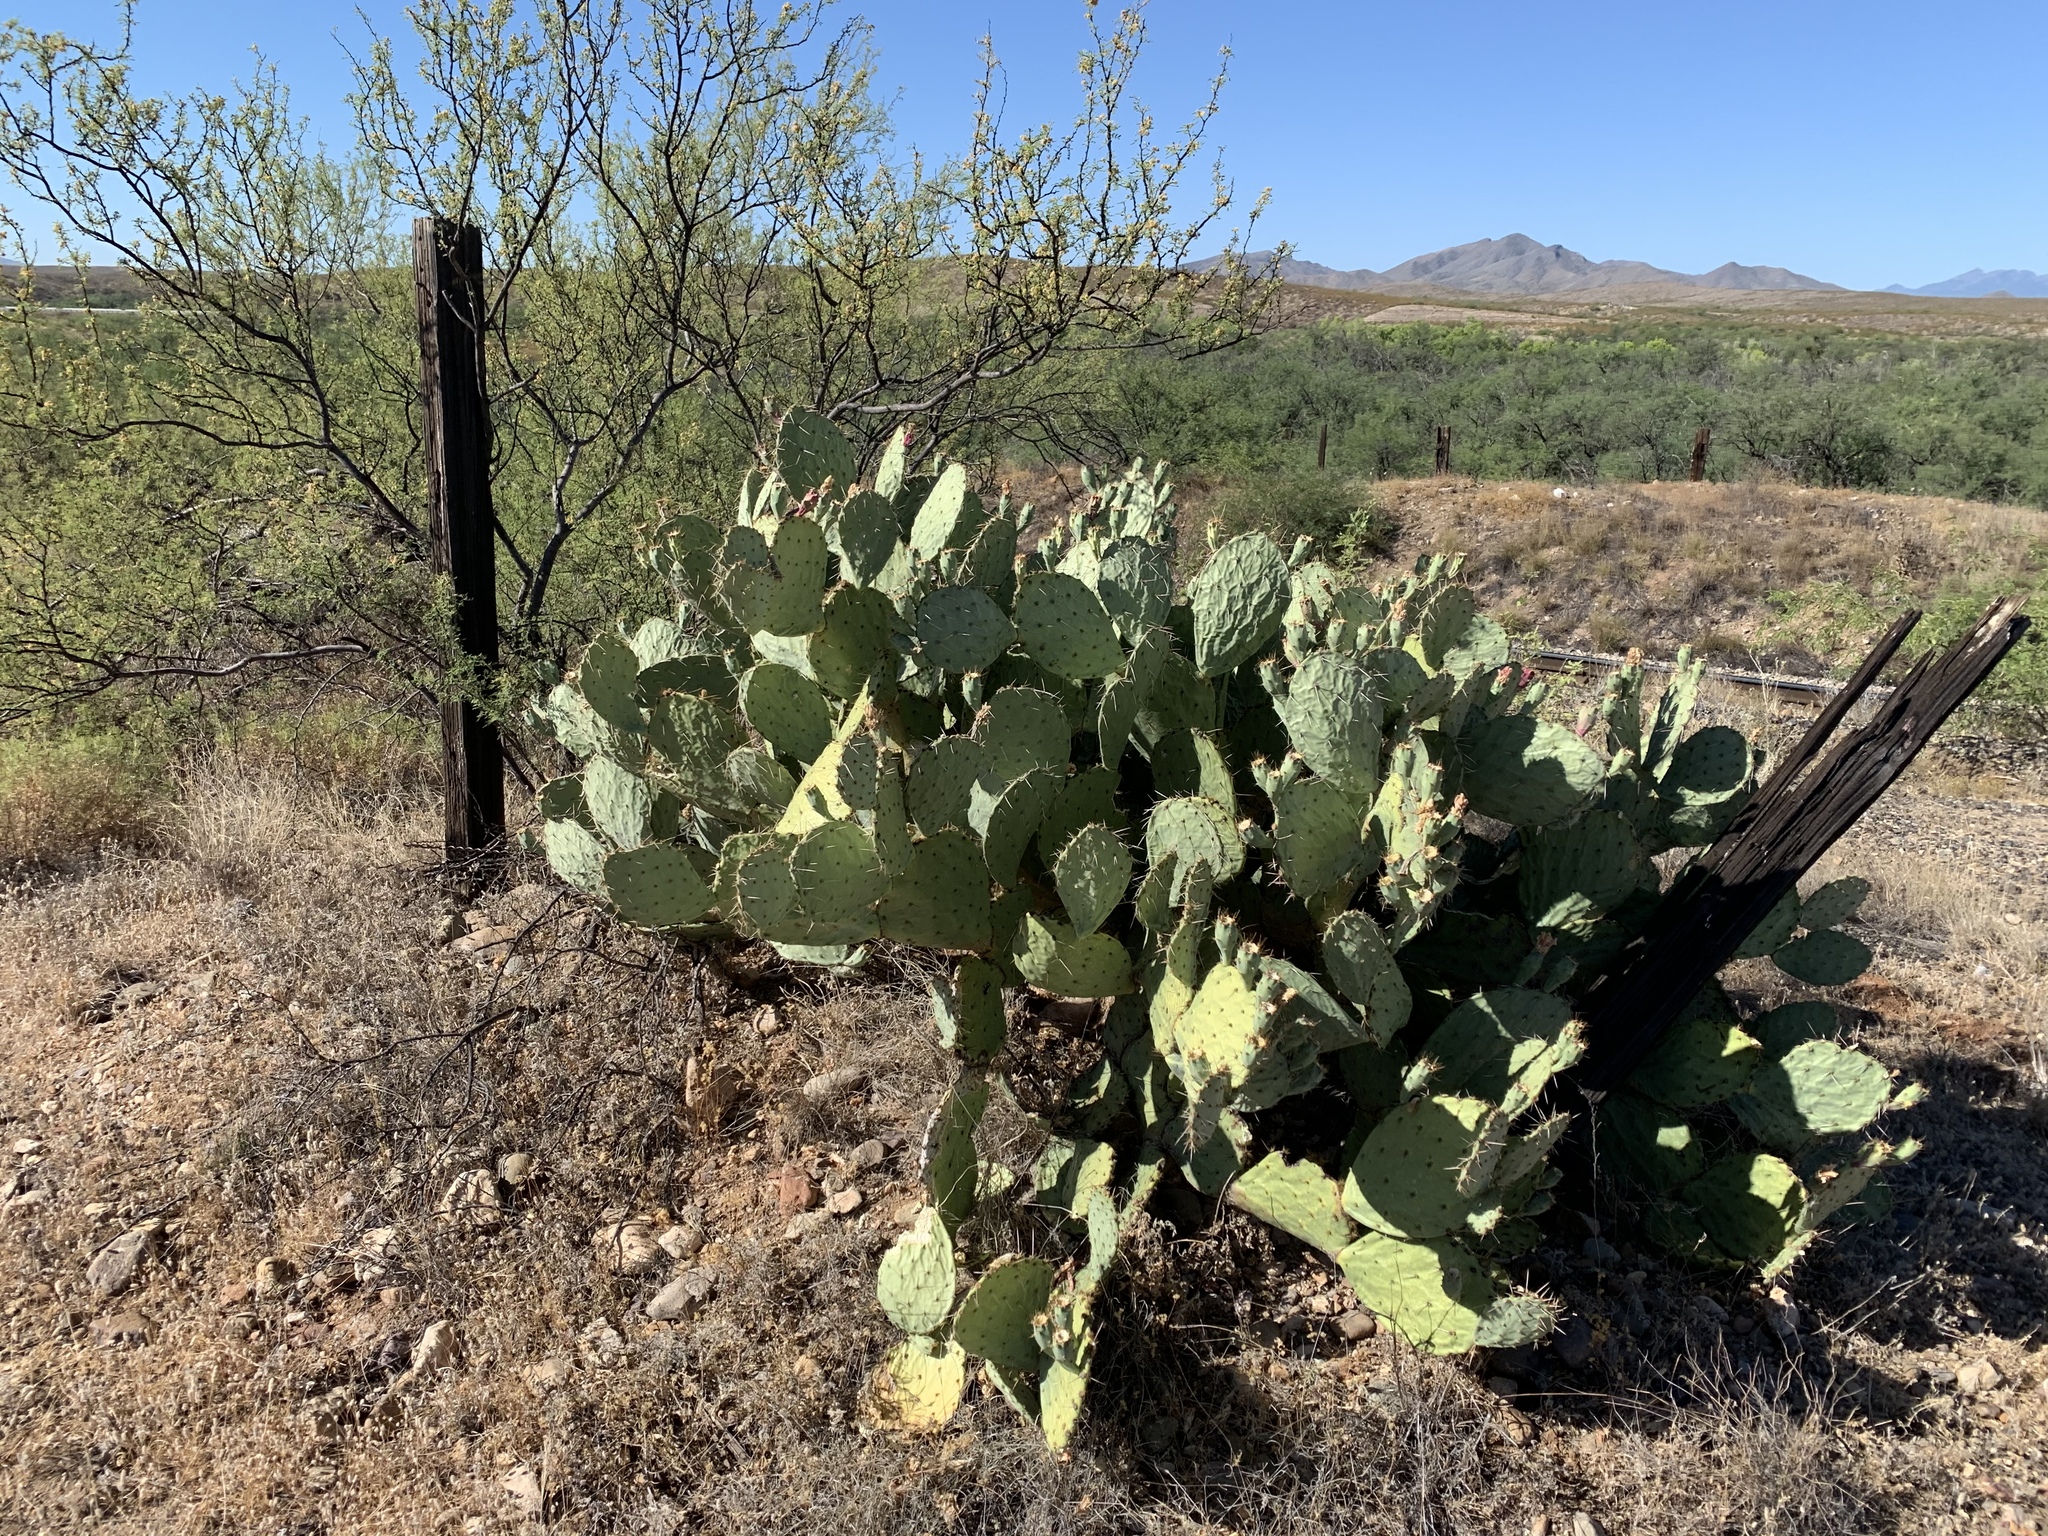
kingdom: Plantae
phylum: Tracheophyta
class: Magnoliopsida
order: Caryophyllales
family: Cactaceae
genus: Opuntia
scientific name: Opuntia engelmannii
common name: Cactus-apple
